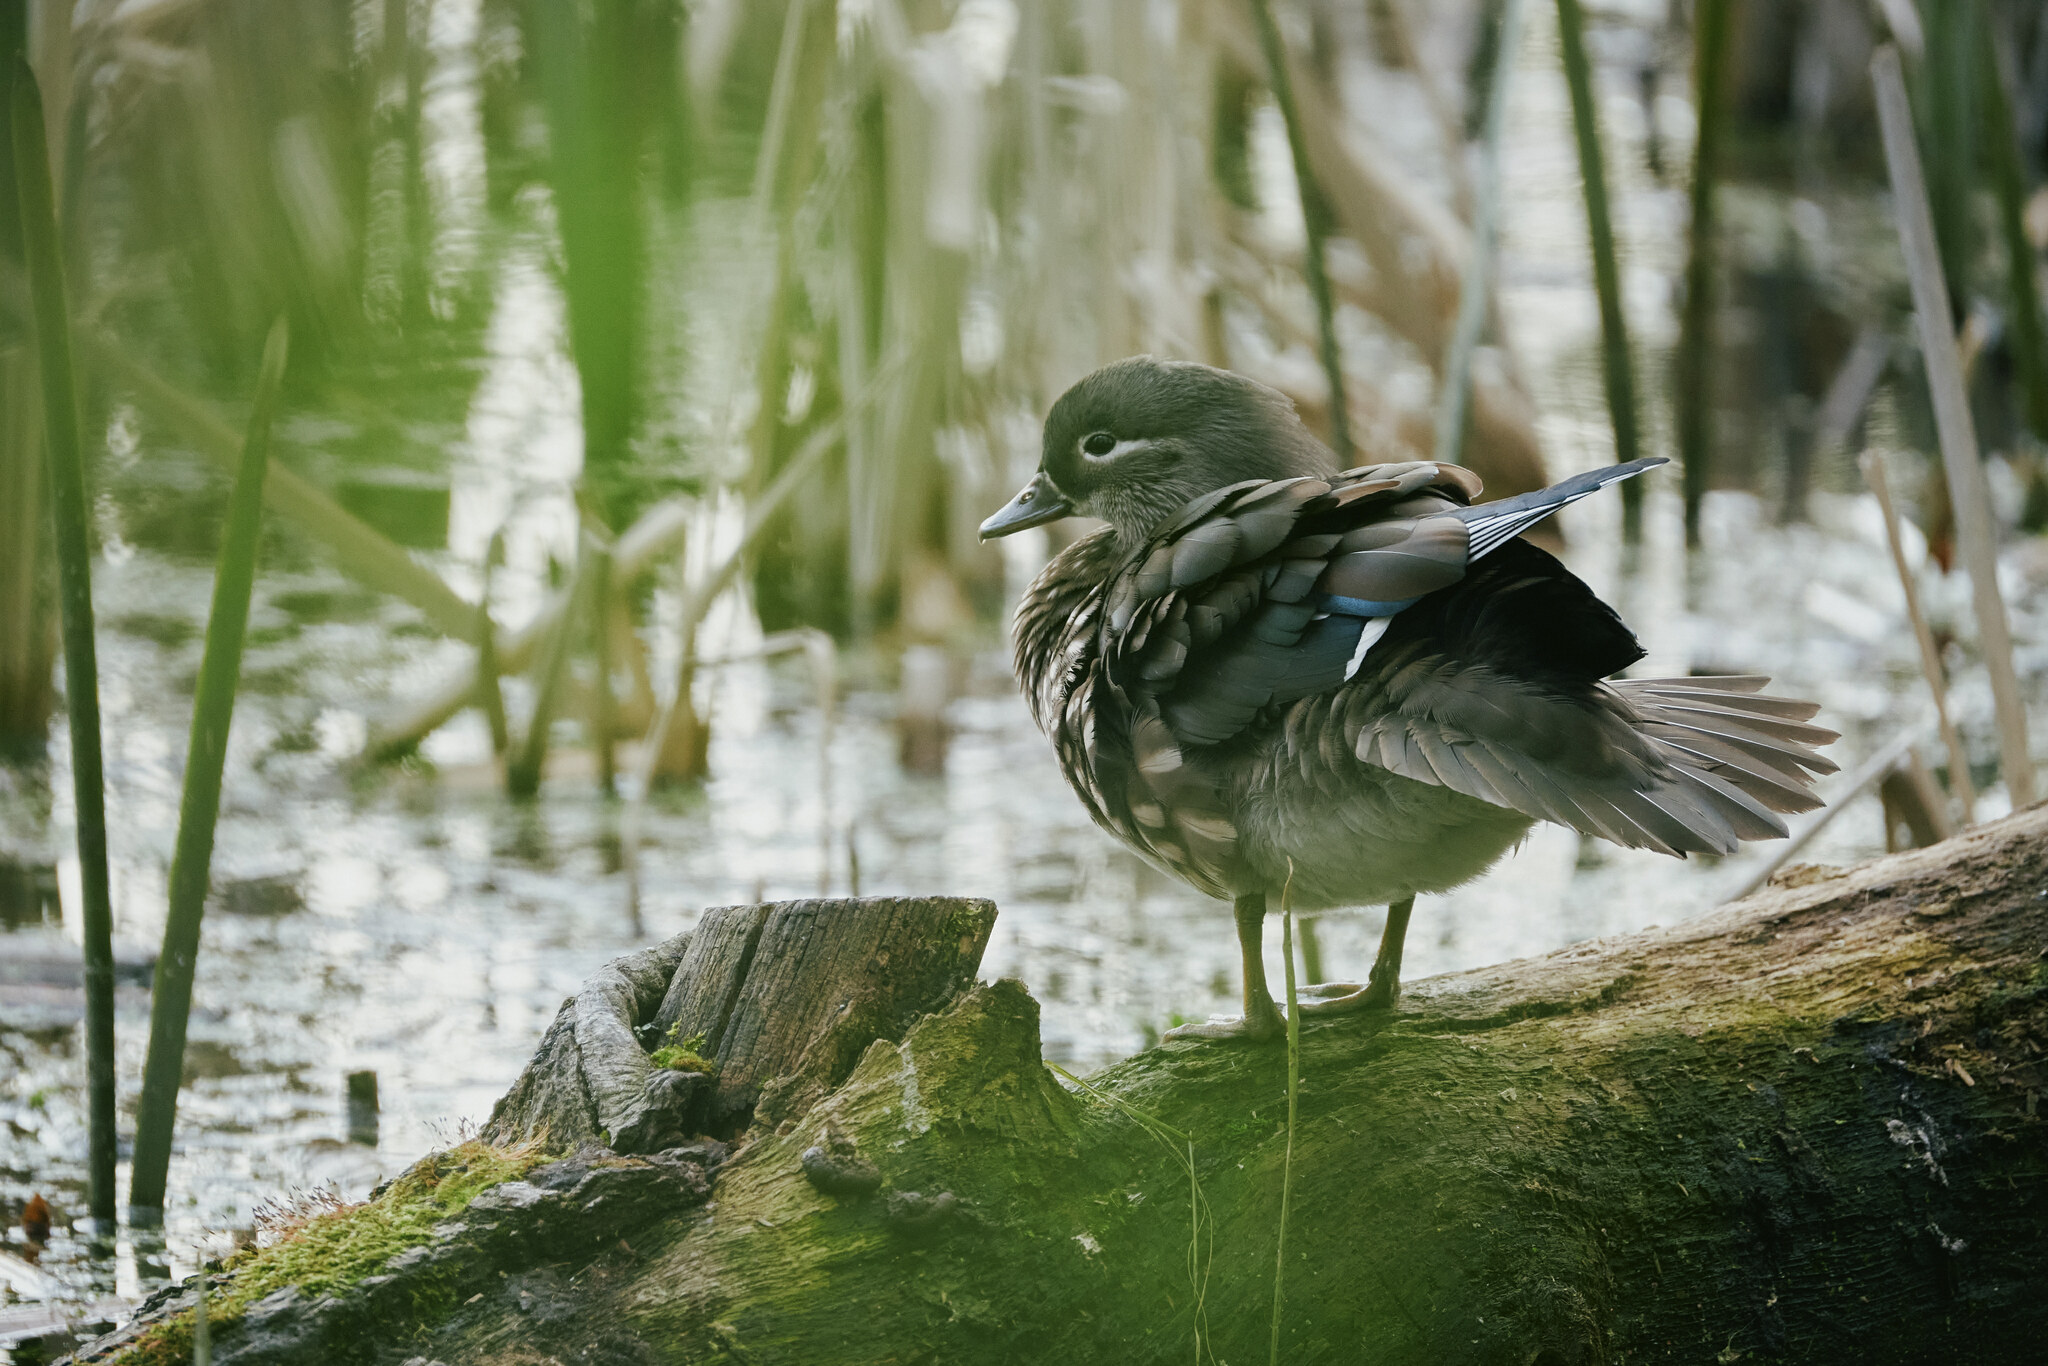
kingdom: Animalia
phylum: Chordata
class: Aves
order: Anseriformes
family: Anatidae
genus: Aix
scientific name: Aix galericulata
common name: Mandarin duck
